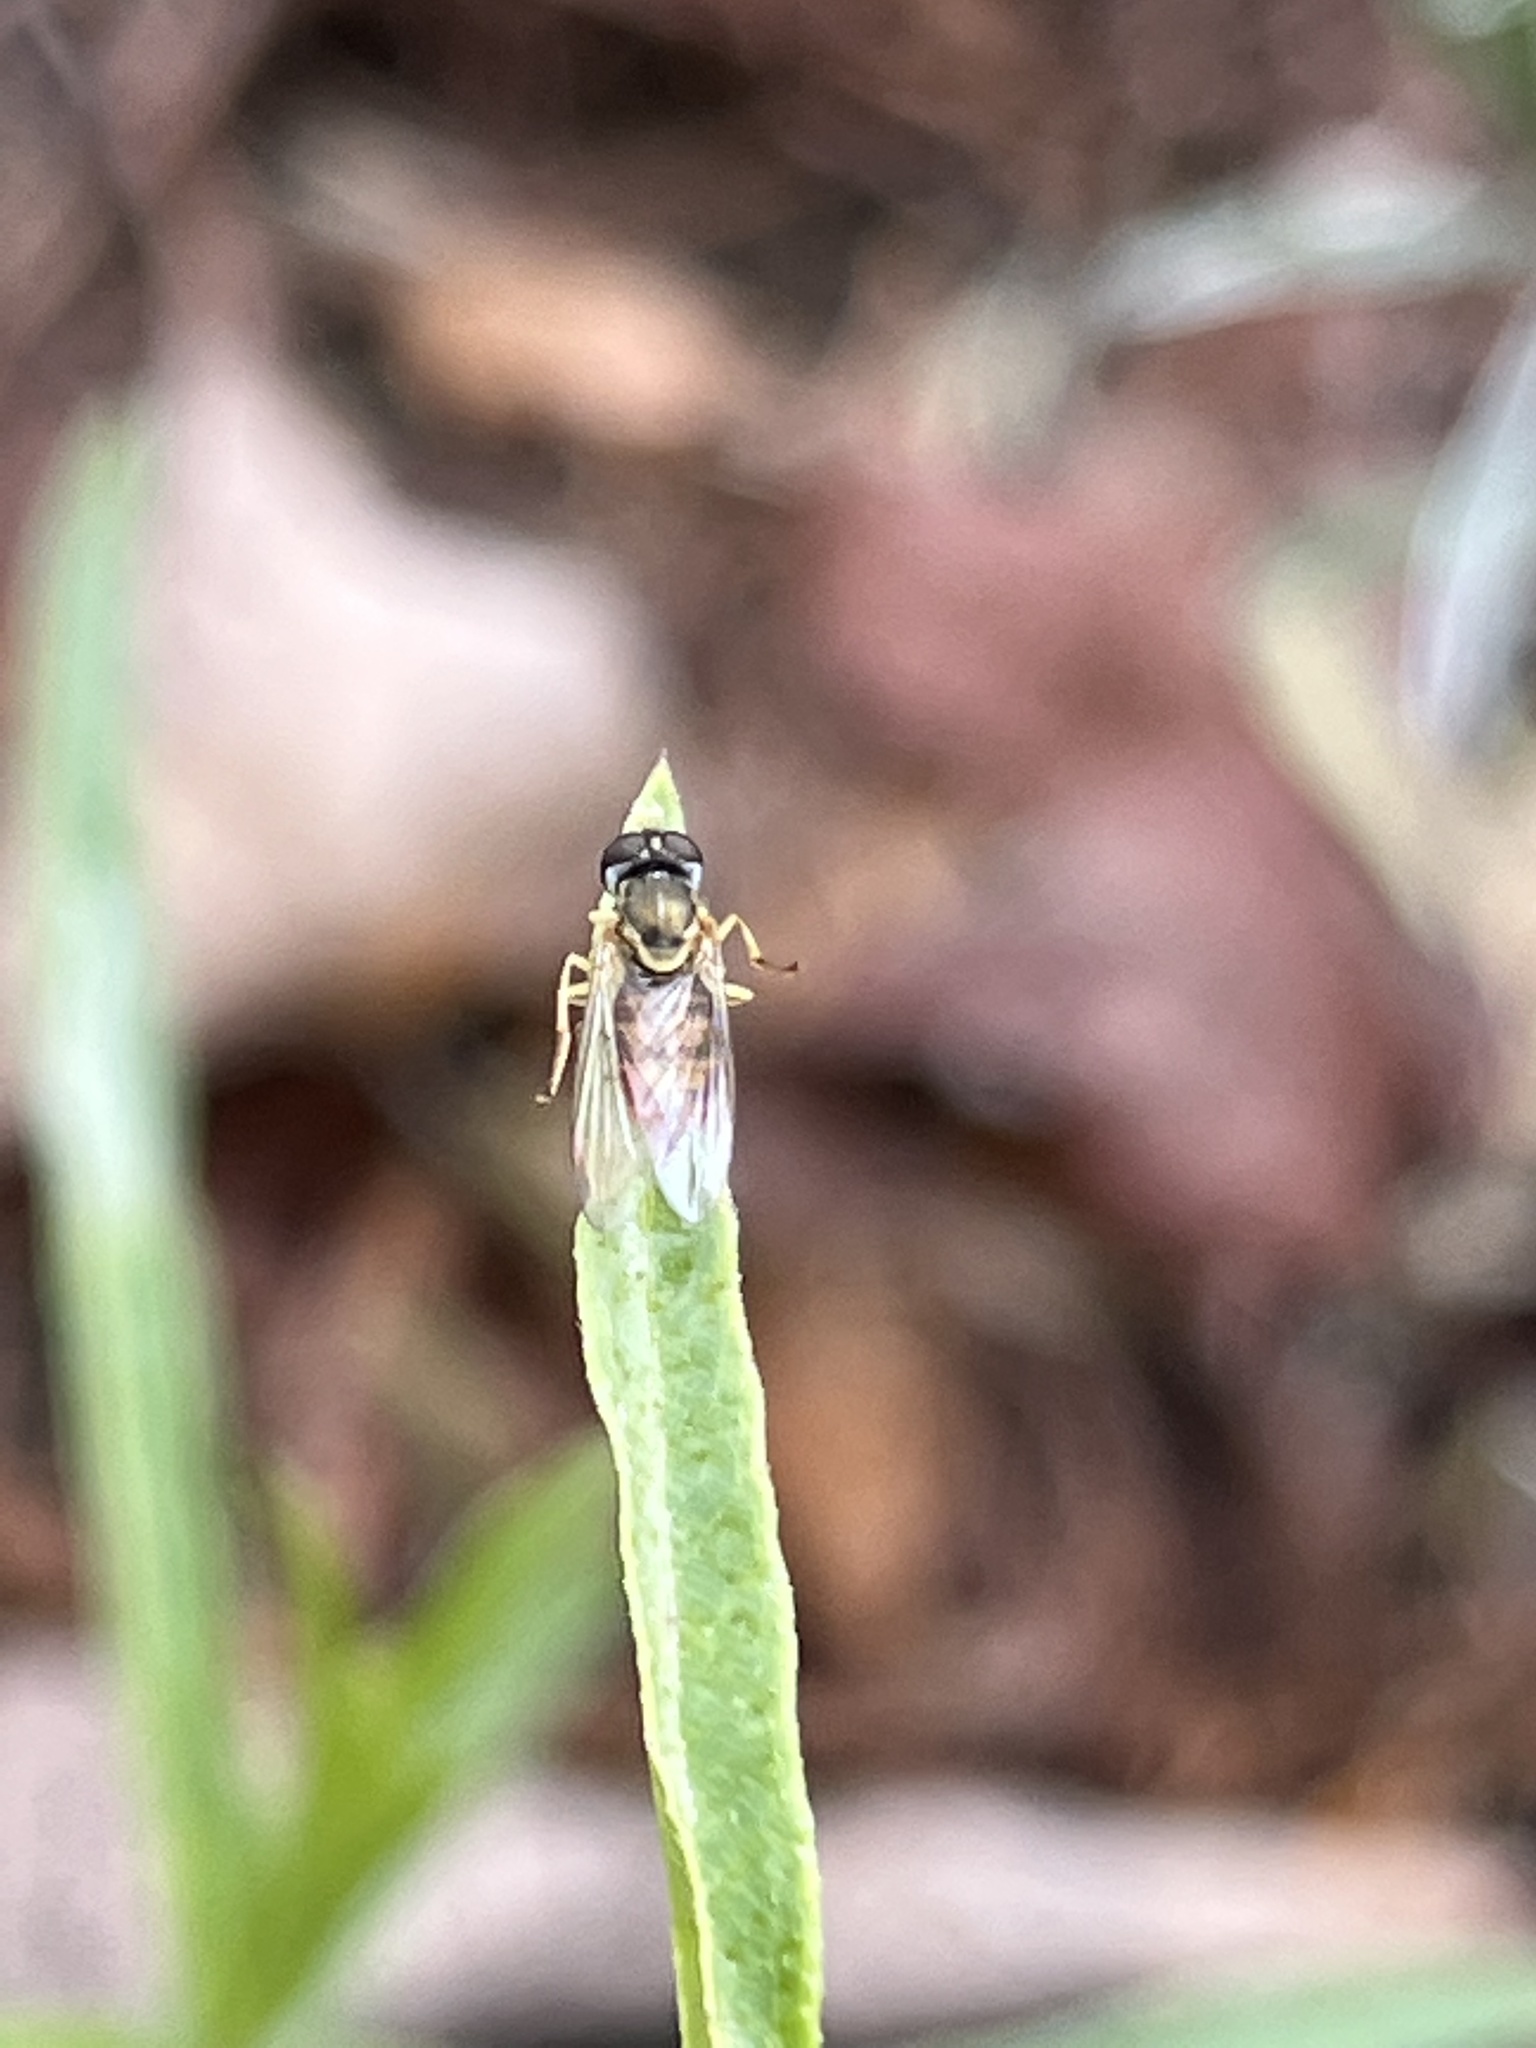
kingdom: Animalia
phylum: Arthropoda
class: Insecta
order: Diptera
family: Syrphidae
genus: Toxomerus
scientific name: Toxomerus marginatus
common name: Syrphid fly
